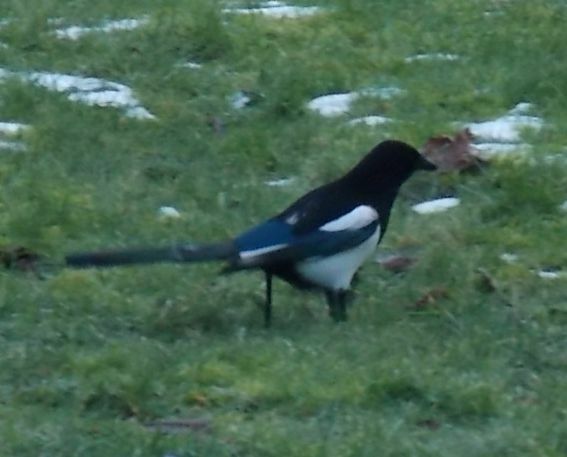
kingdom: Animalia
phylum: Chordata
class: Aves
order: Passeriformes
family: Corvidae
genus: Pica
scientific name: Pica pica
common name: Eurasian magpie
